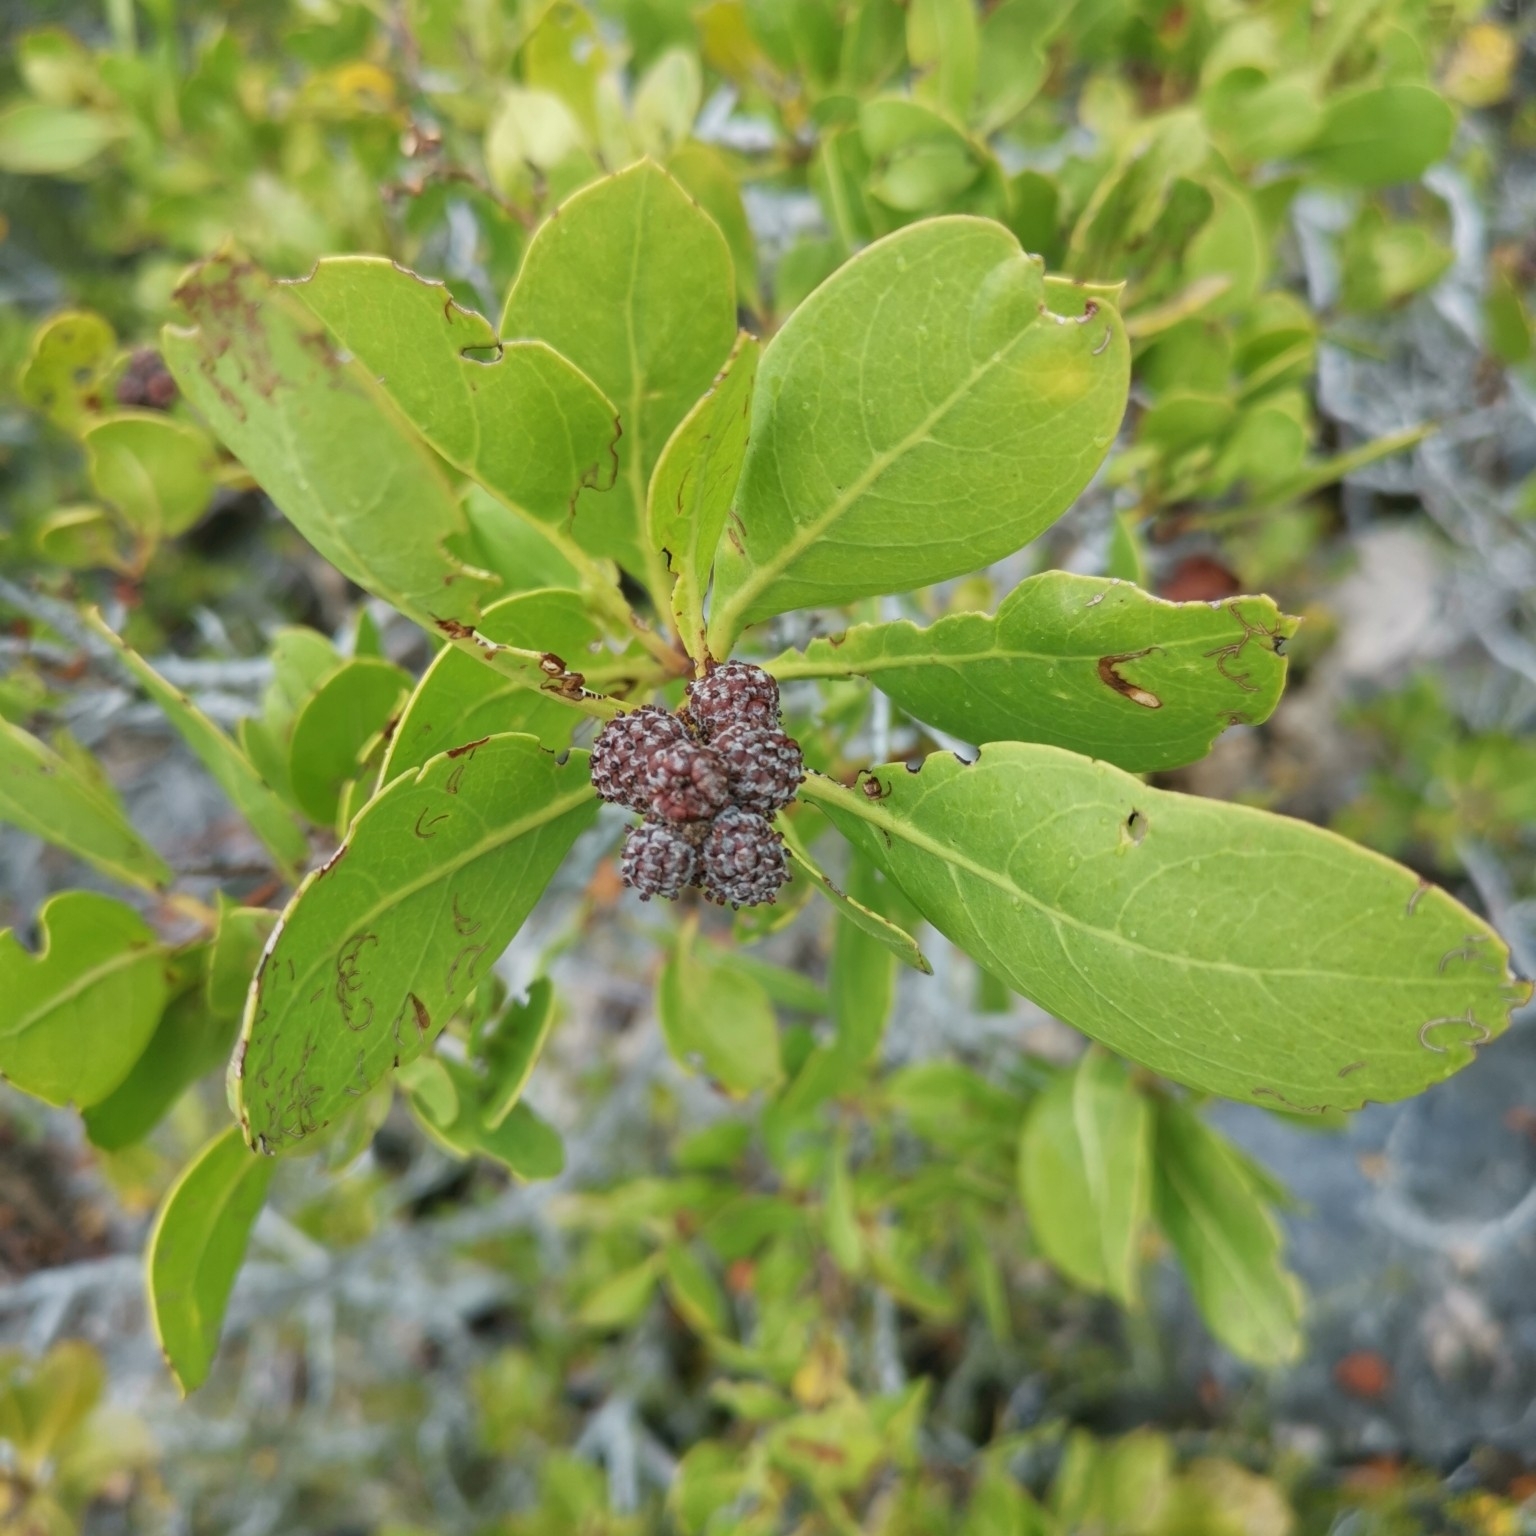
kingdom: Plantae
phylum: Tracheophyta
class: Magnoliopsida
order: Myrtales
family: Combretaceae
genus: Conocarpus
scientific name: Conocarpus erectus
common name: Button mangrove
